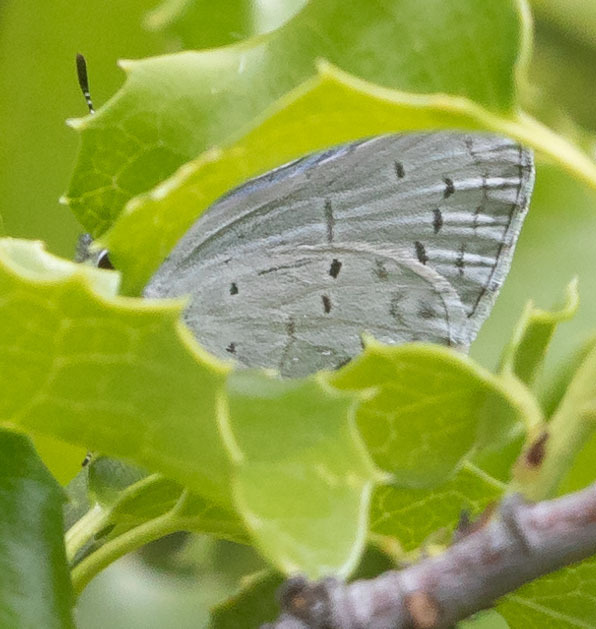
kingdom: Animalia
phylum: Arthropoda
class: Insecta
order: Lepidoptera
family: Lycaenidae
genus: Celastrina
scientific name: Celastrina ladon
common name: Spring azure
